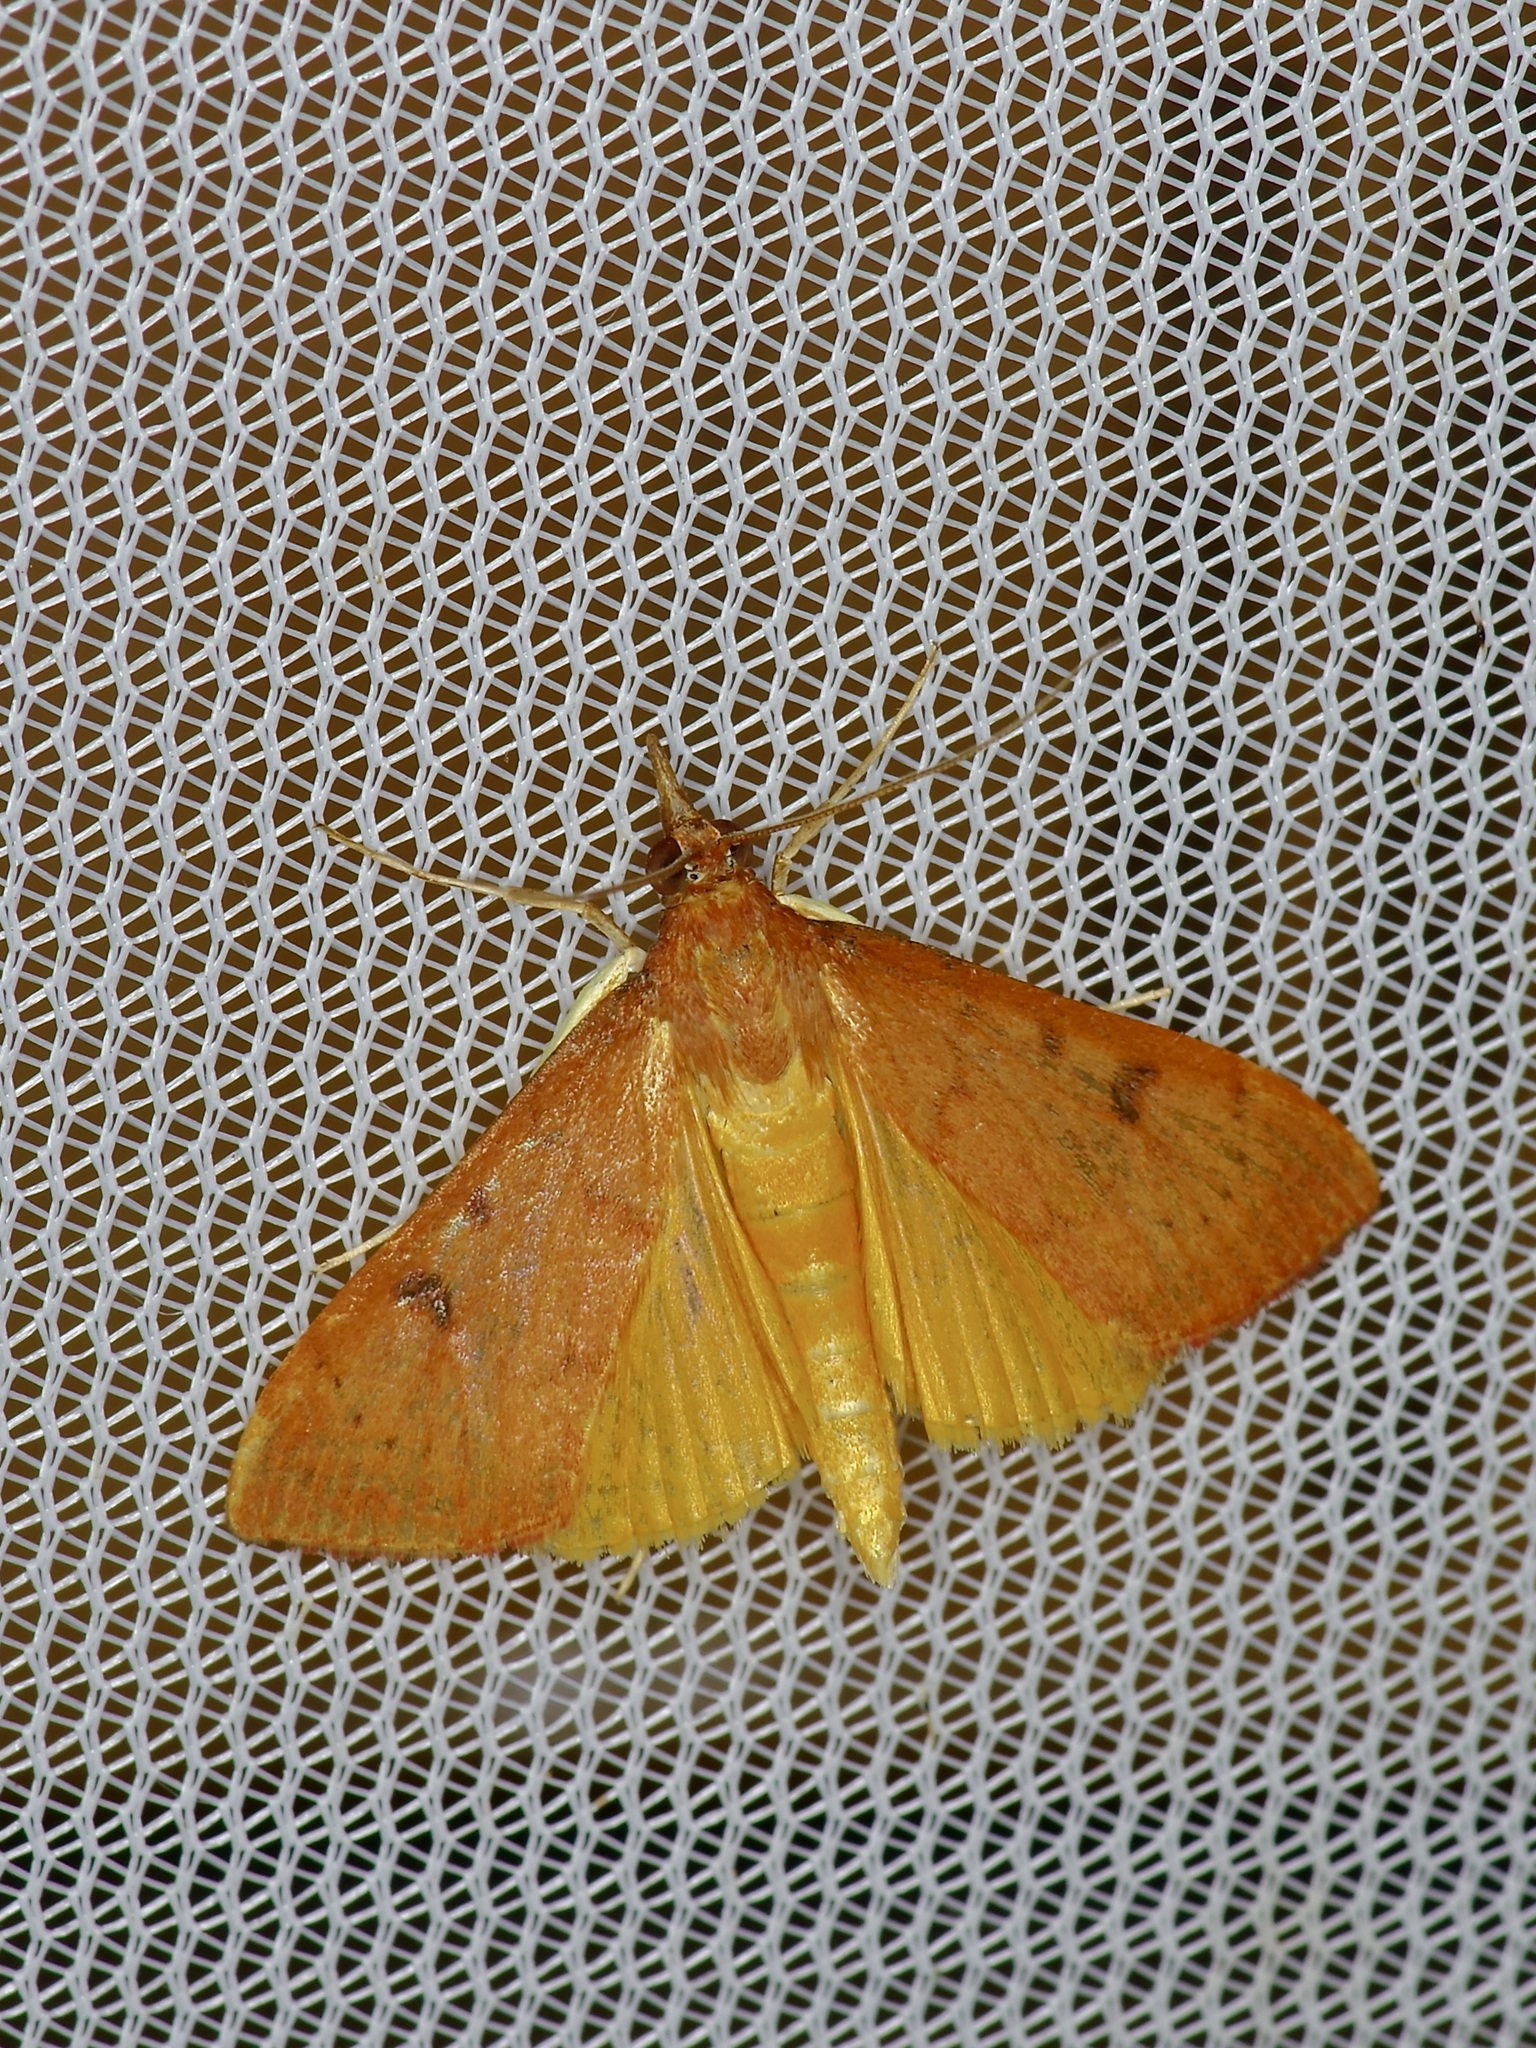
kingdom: Animalia
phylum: Arthropoda
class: Insecta
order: Lepidoptera
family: Crambidae
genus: Uresiphita
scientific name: Uresiphita reversalis
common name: Genista broom moth
